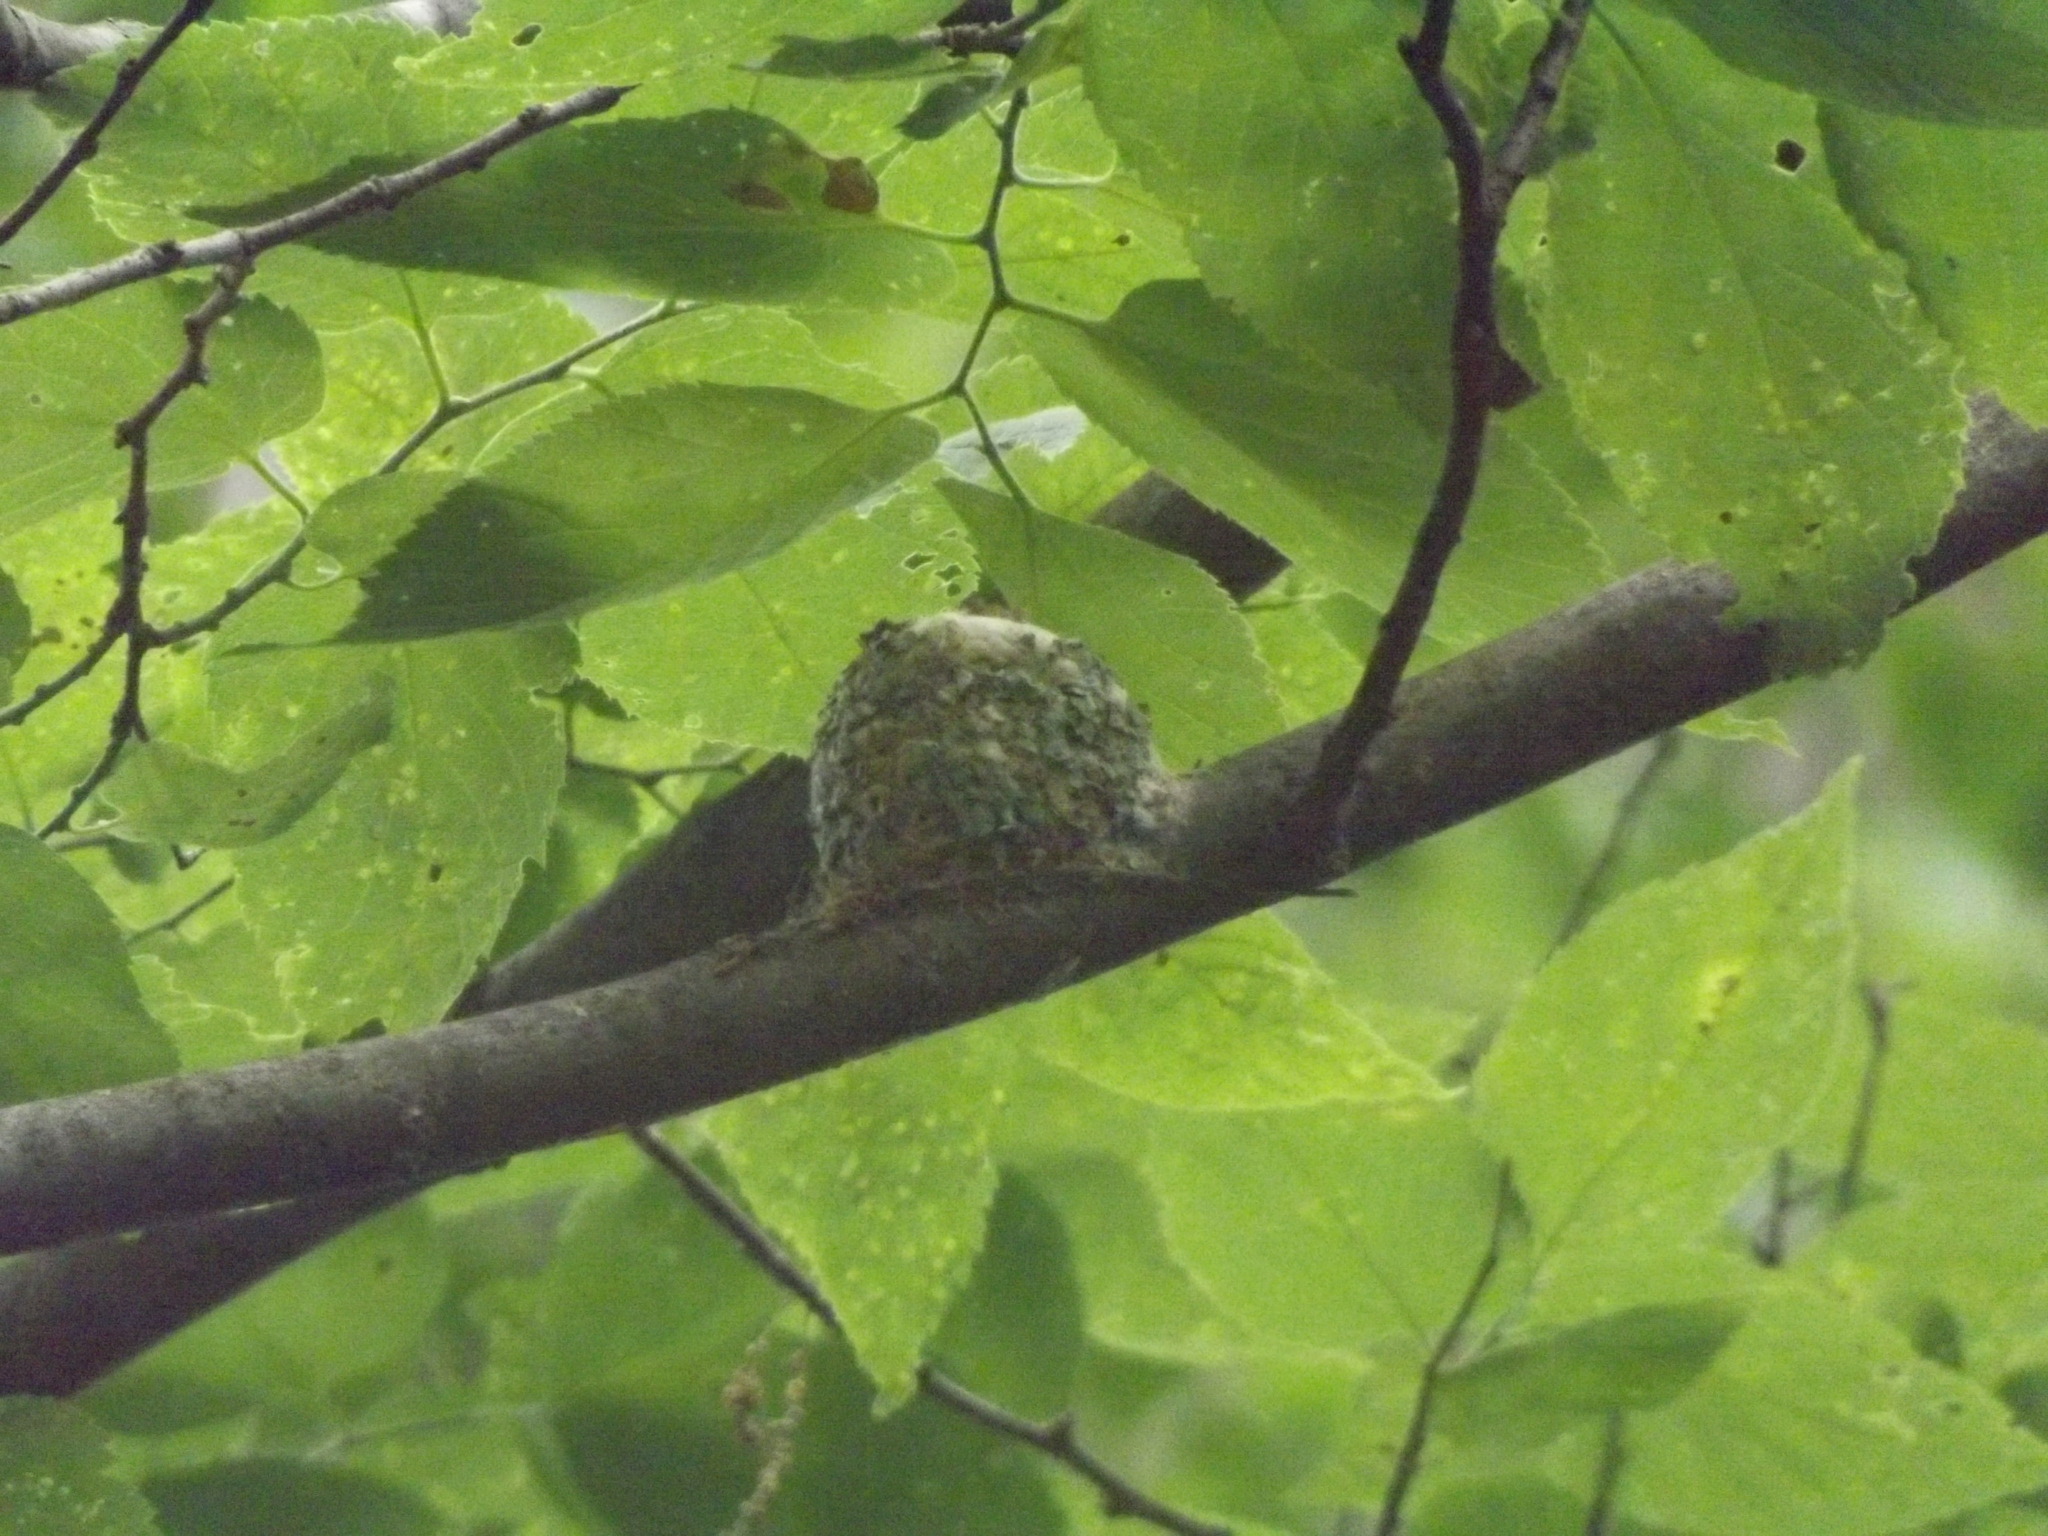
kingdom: Animalia
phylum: Chordata
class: Aves
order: Apodiformes
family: Trochilidae
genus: Archilochus
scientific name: Archilochus colubris
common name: Ruby-throated hummingbird
